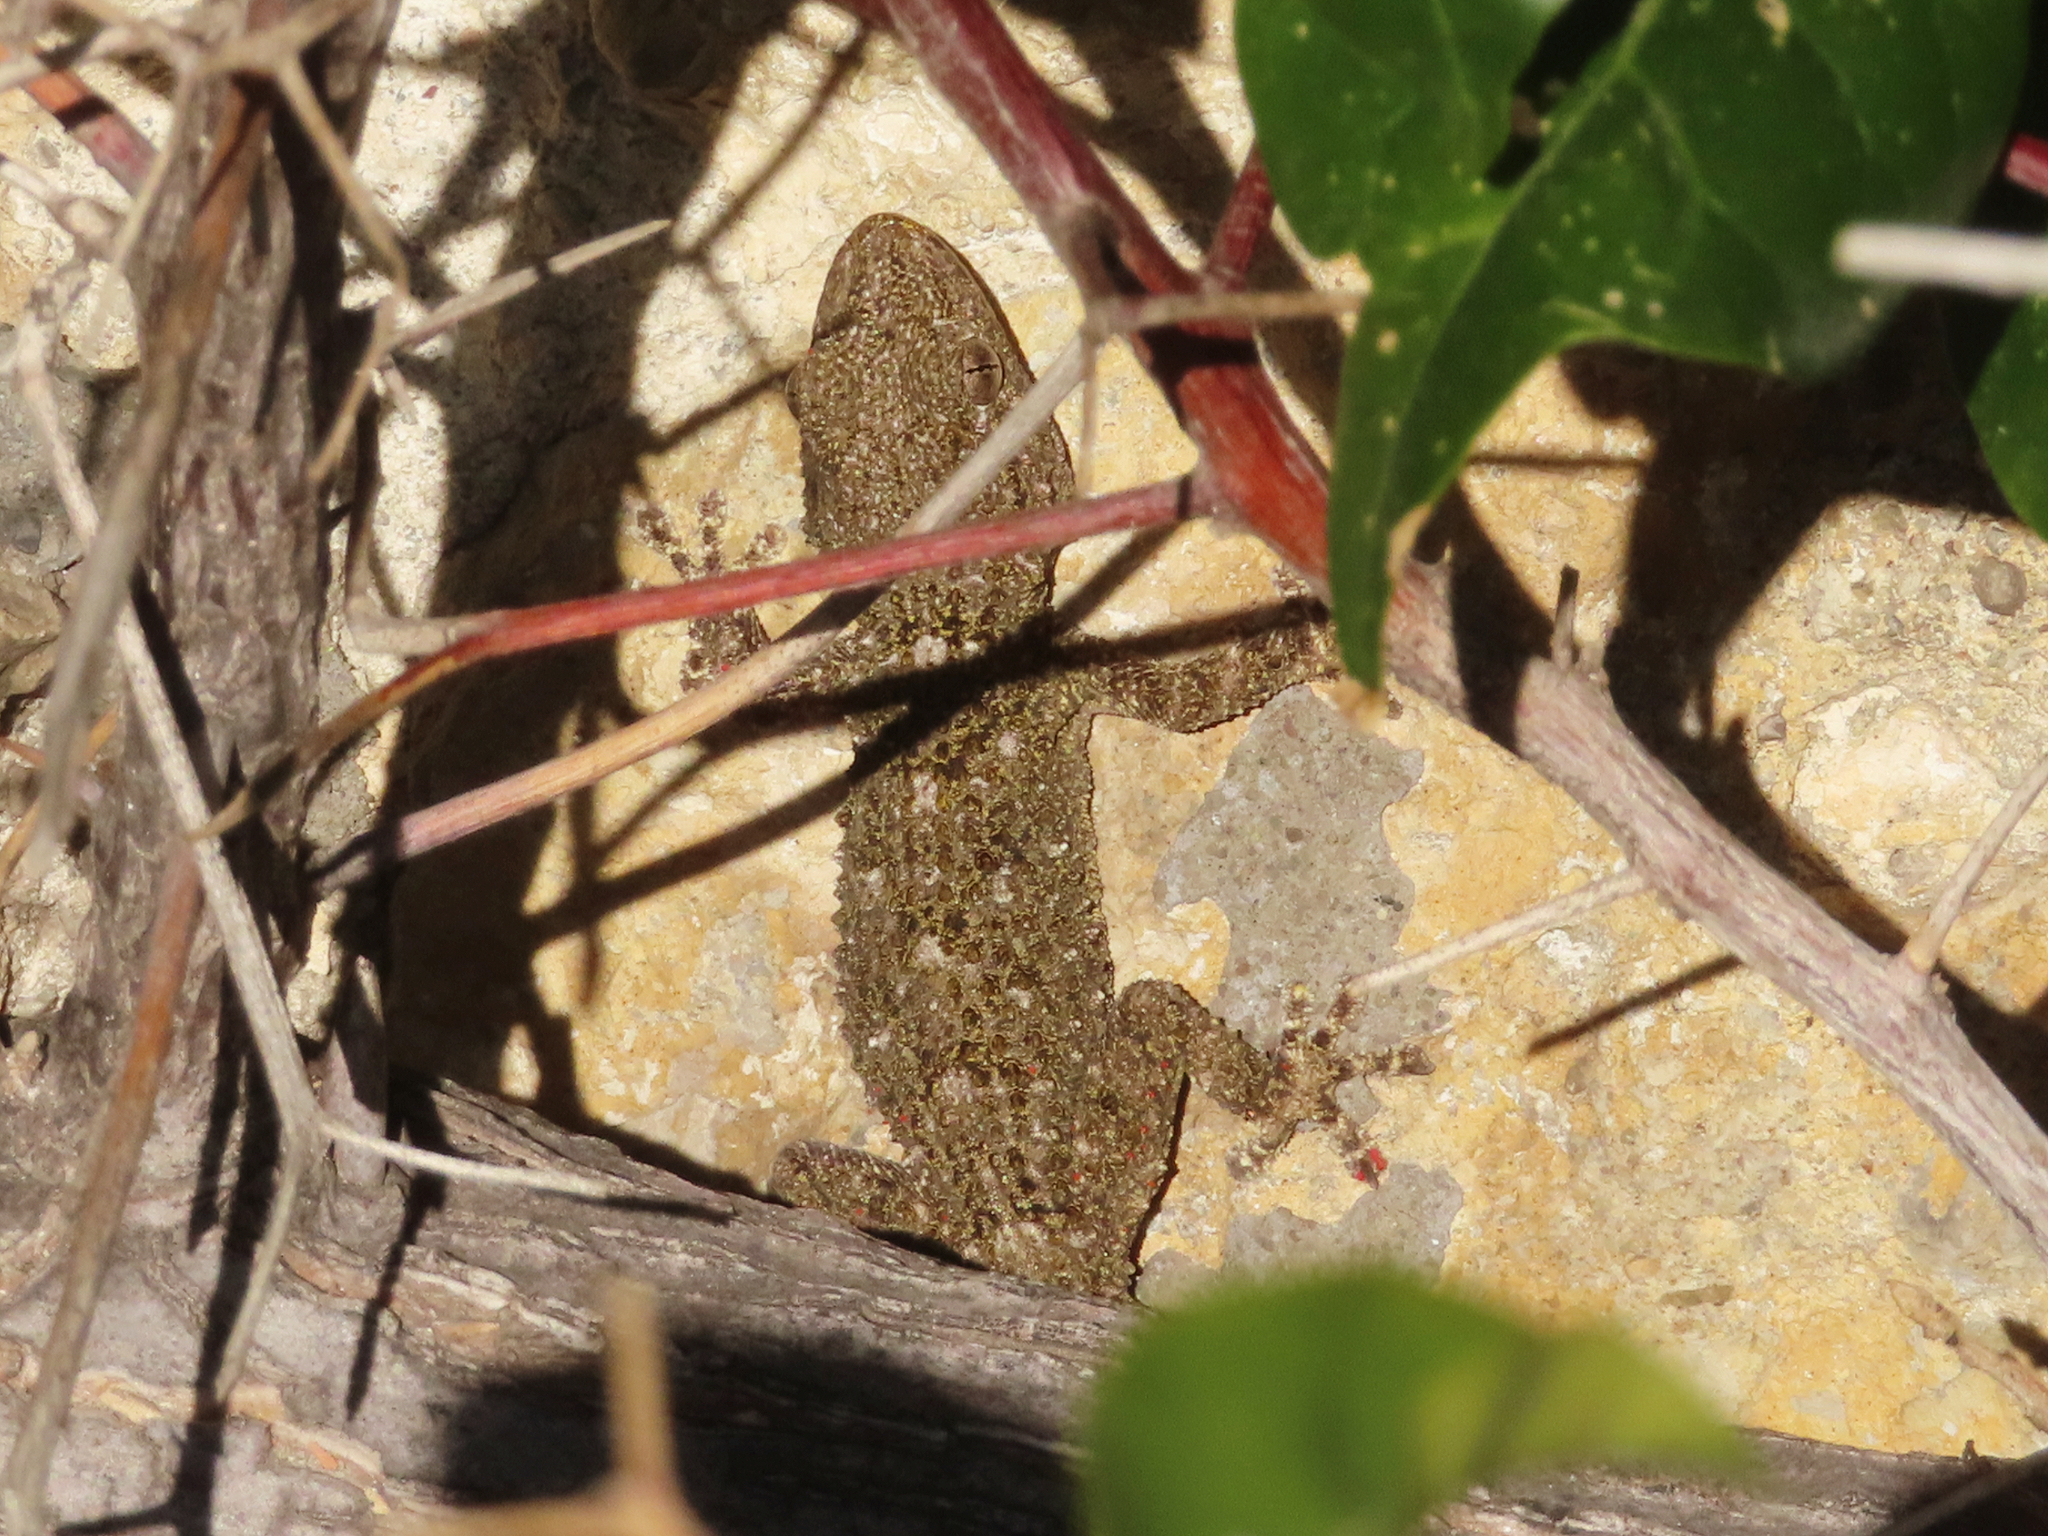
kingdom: Animalia
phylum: Chordata
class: Squamata
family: Phyllodactylidae
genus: Tarentola
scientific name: Tarentola mauritanica
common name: Moorish gecko
